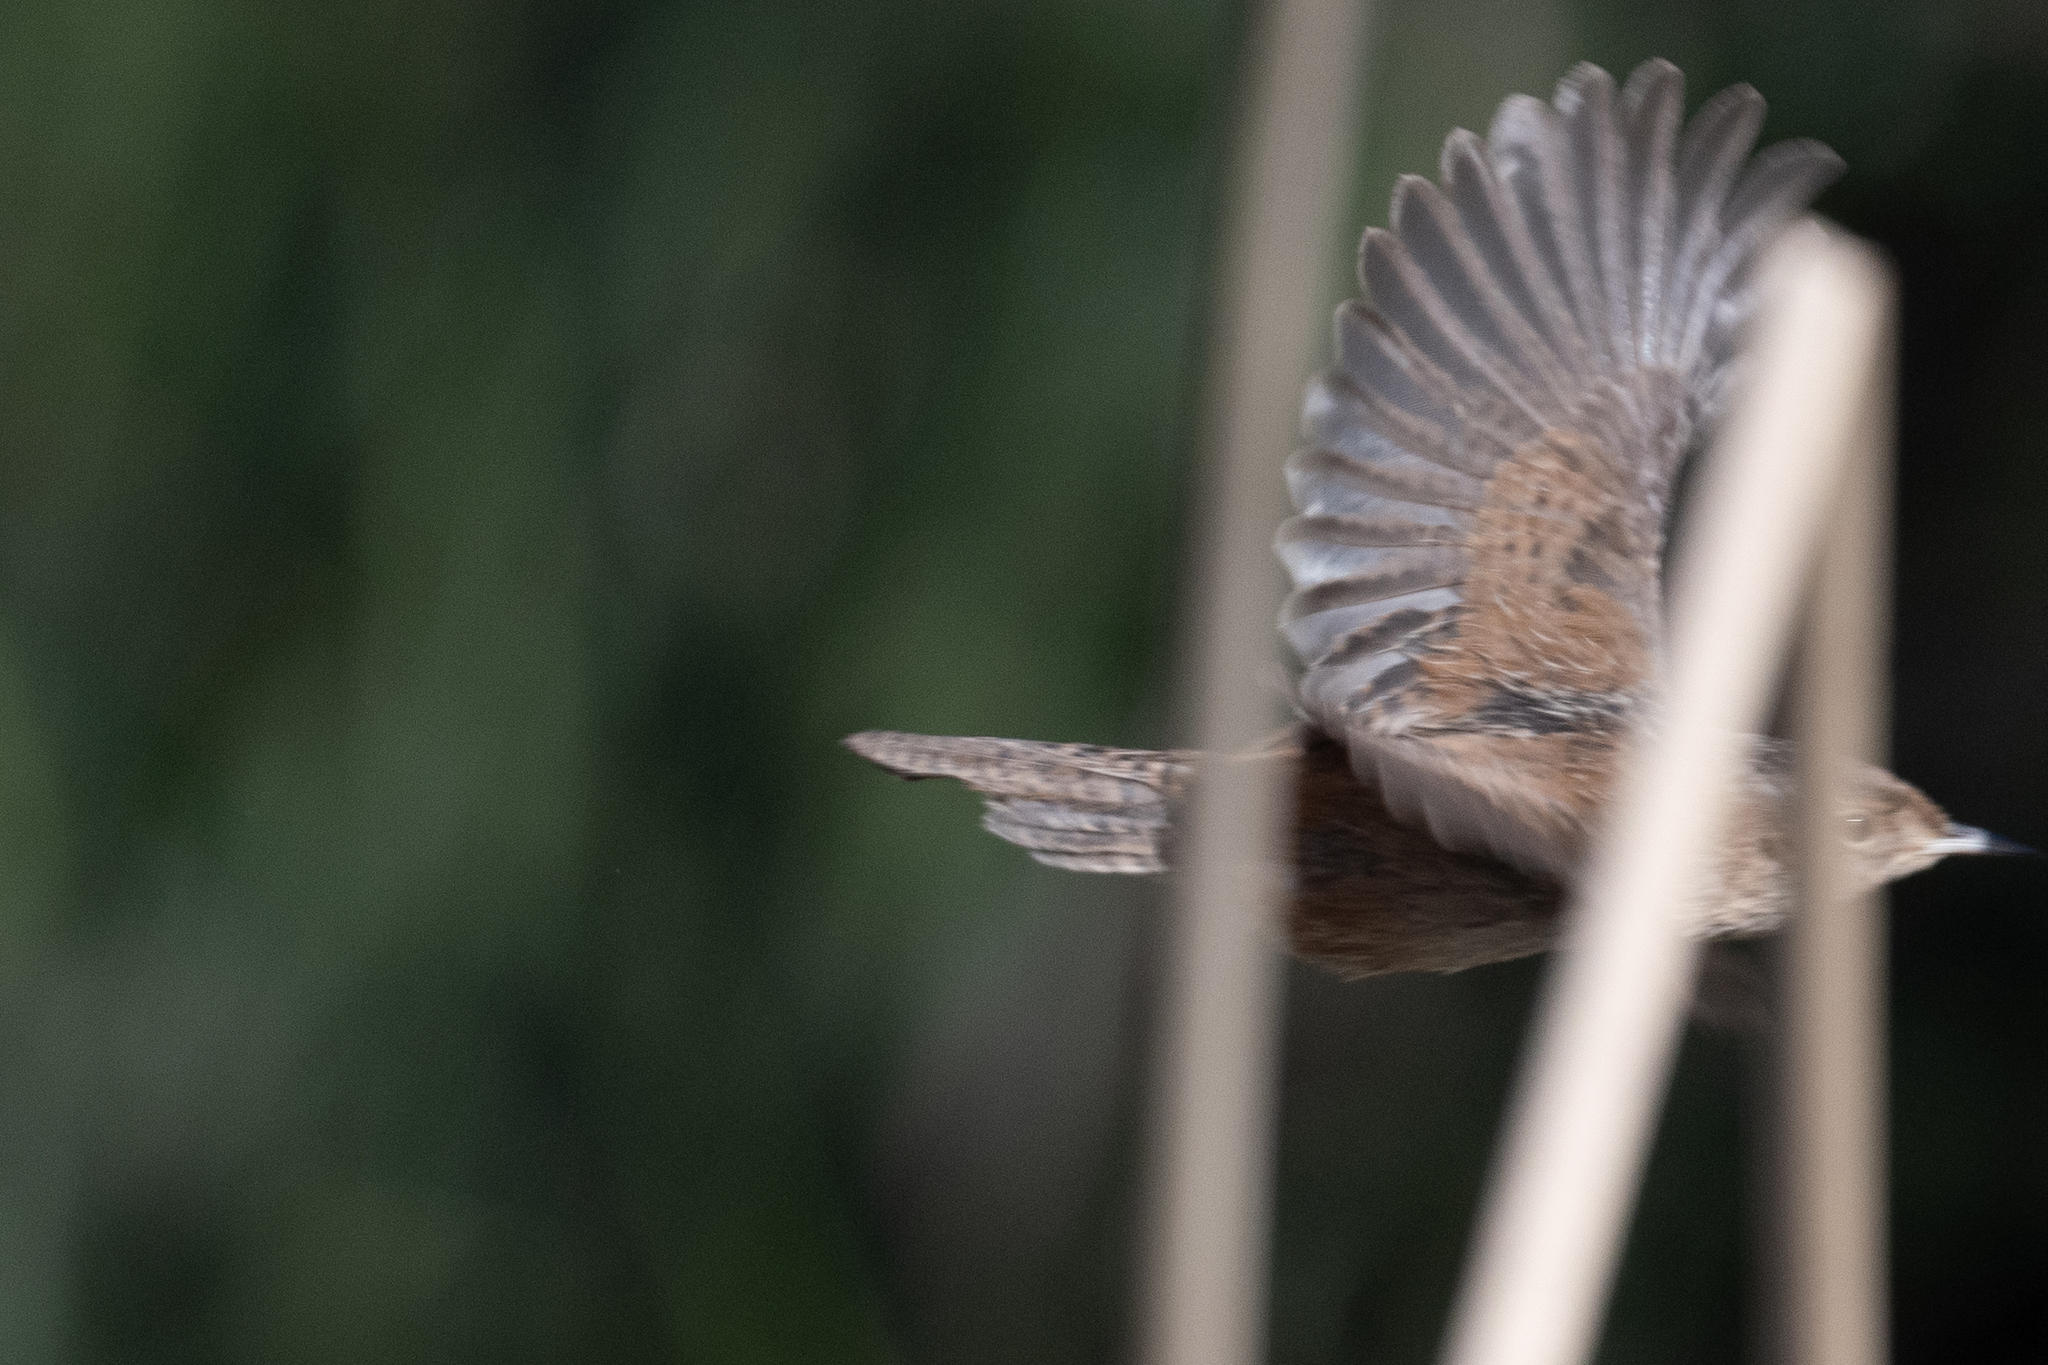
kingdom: Animalia
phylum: Chordata
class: Aves
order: Passeriformes
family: Troglodytidae
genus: Cistothorus
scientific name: Cistothorus palustris
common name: Marsh wren
